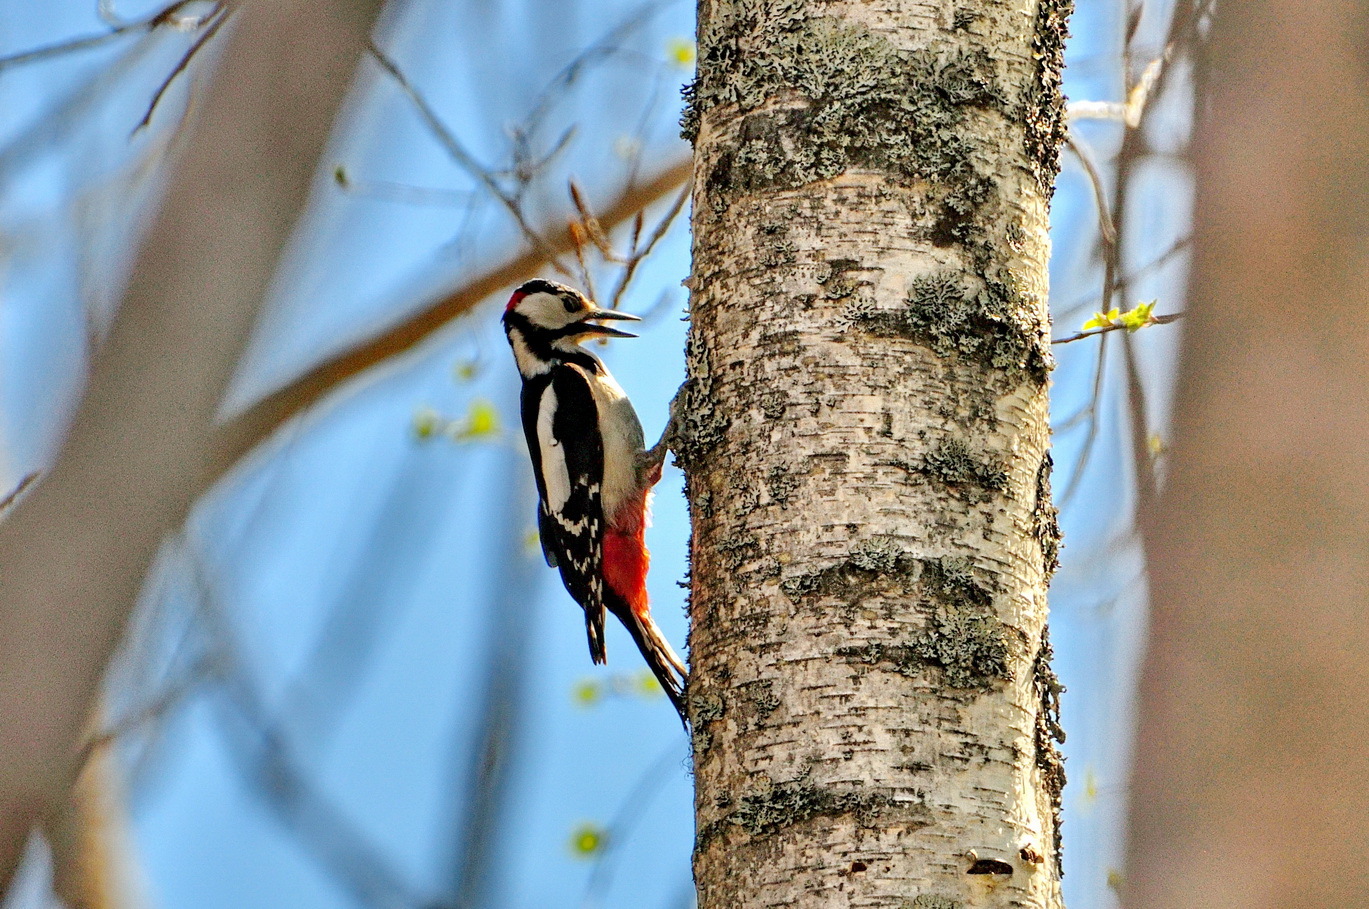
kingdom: Animalia
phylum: Chordata
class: Aves
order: Piciformes
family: Picidae
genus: Dendrocopos
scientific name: Dendrocopos major
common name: Great spotted woodpecker
